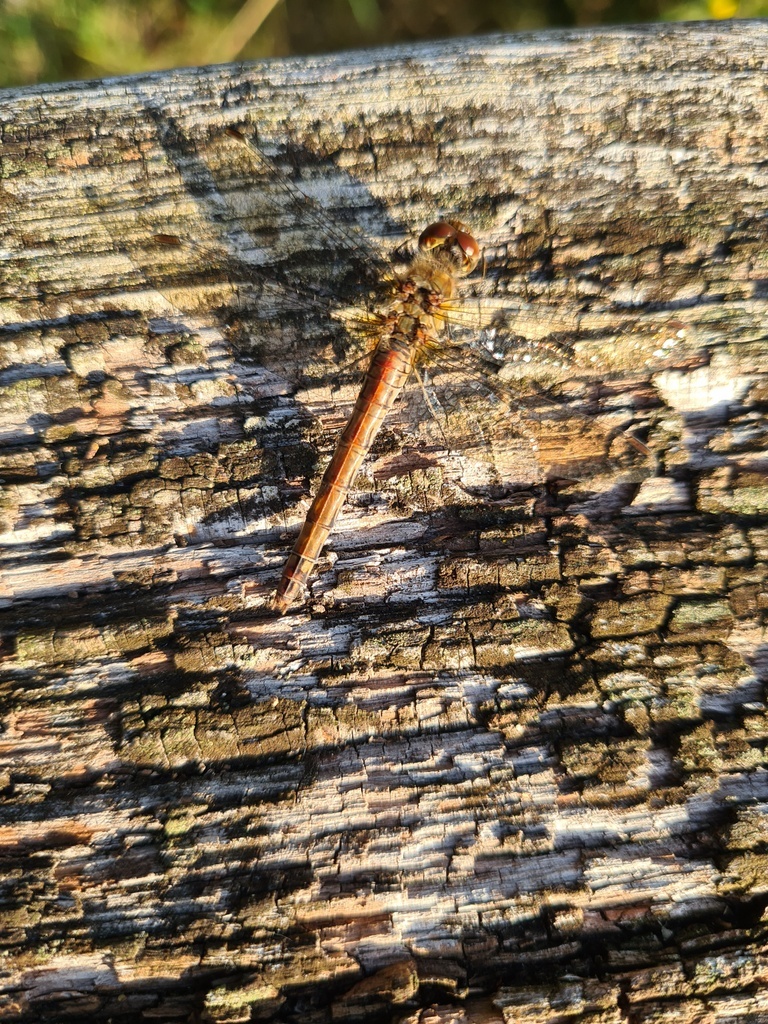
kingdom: Animalia
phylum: Arthropoda
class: Insecta
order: Odonata
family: Libellulidae
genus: Sympetrum
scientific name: Sympetrum striolatum
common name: Common darter
